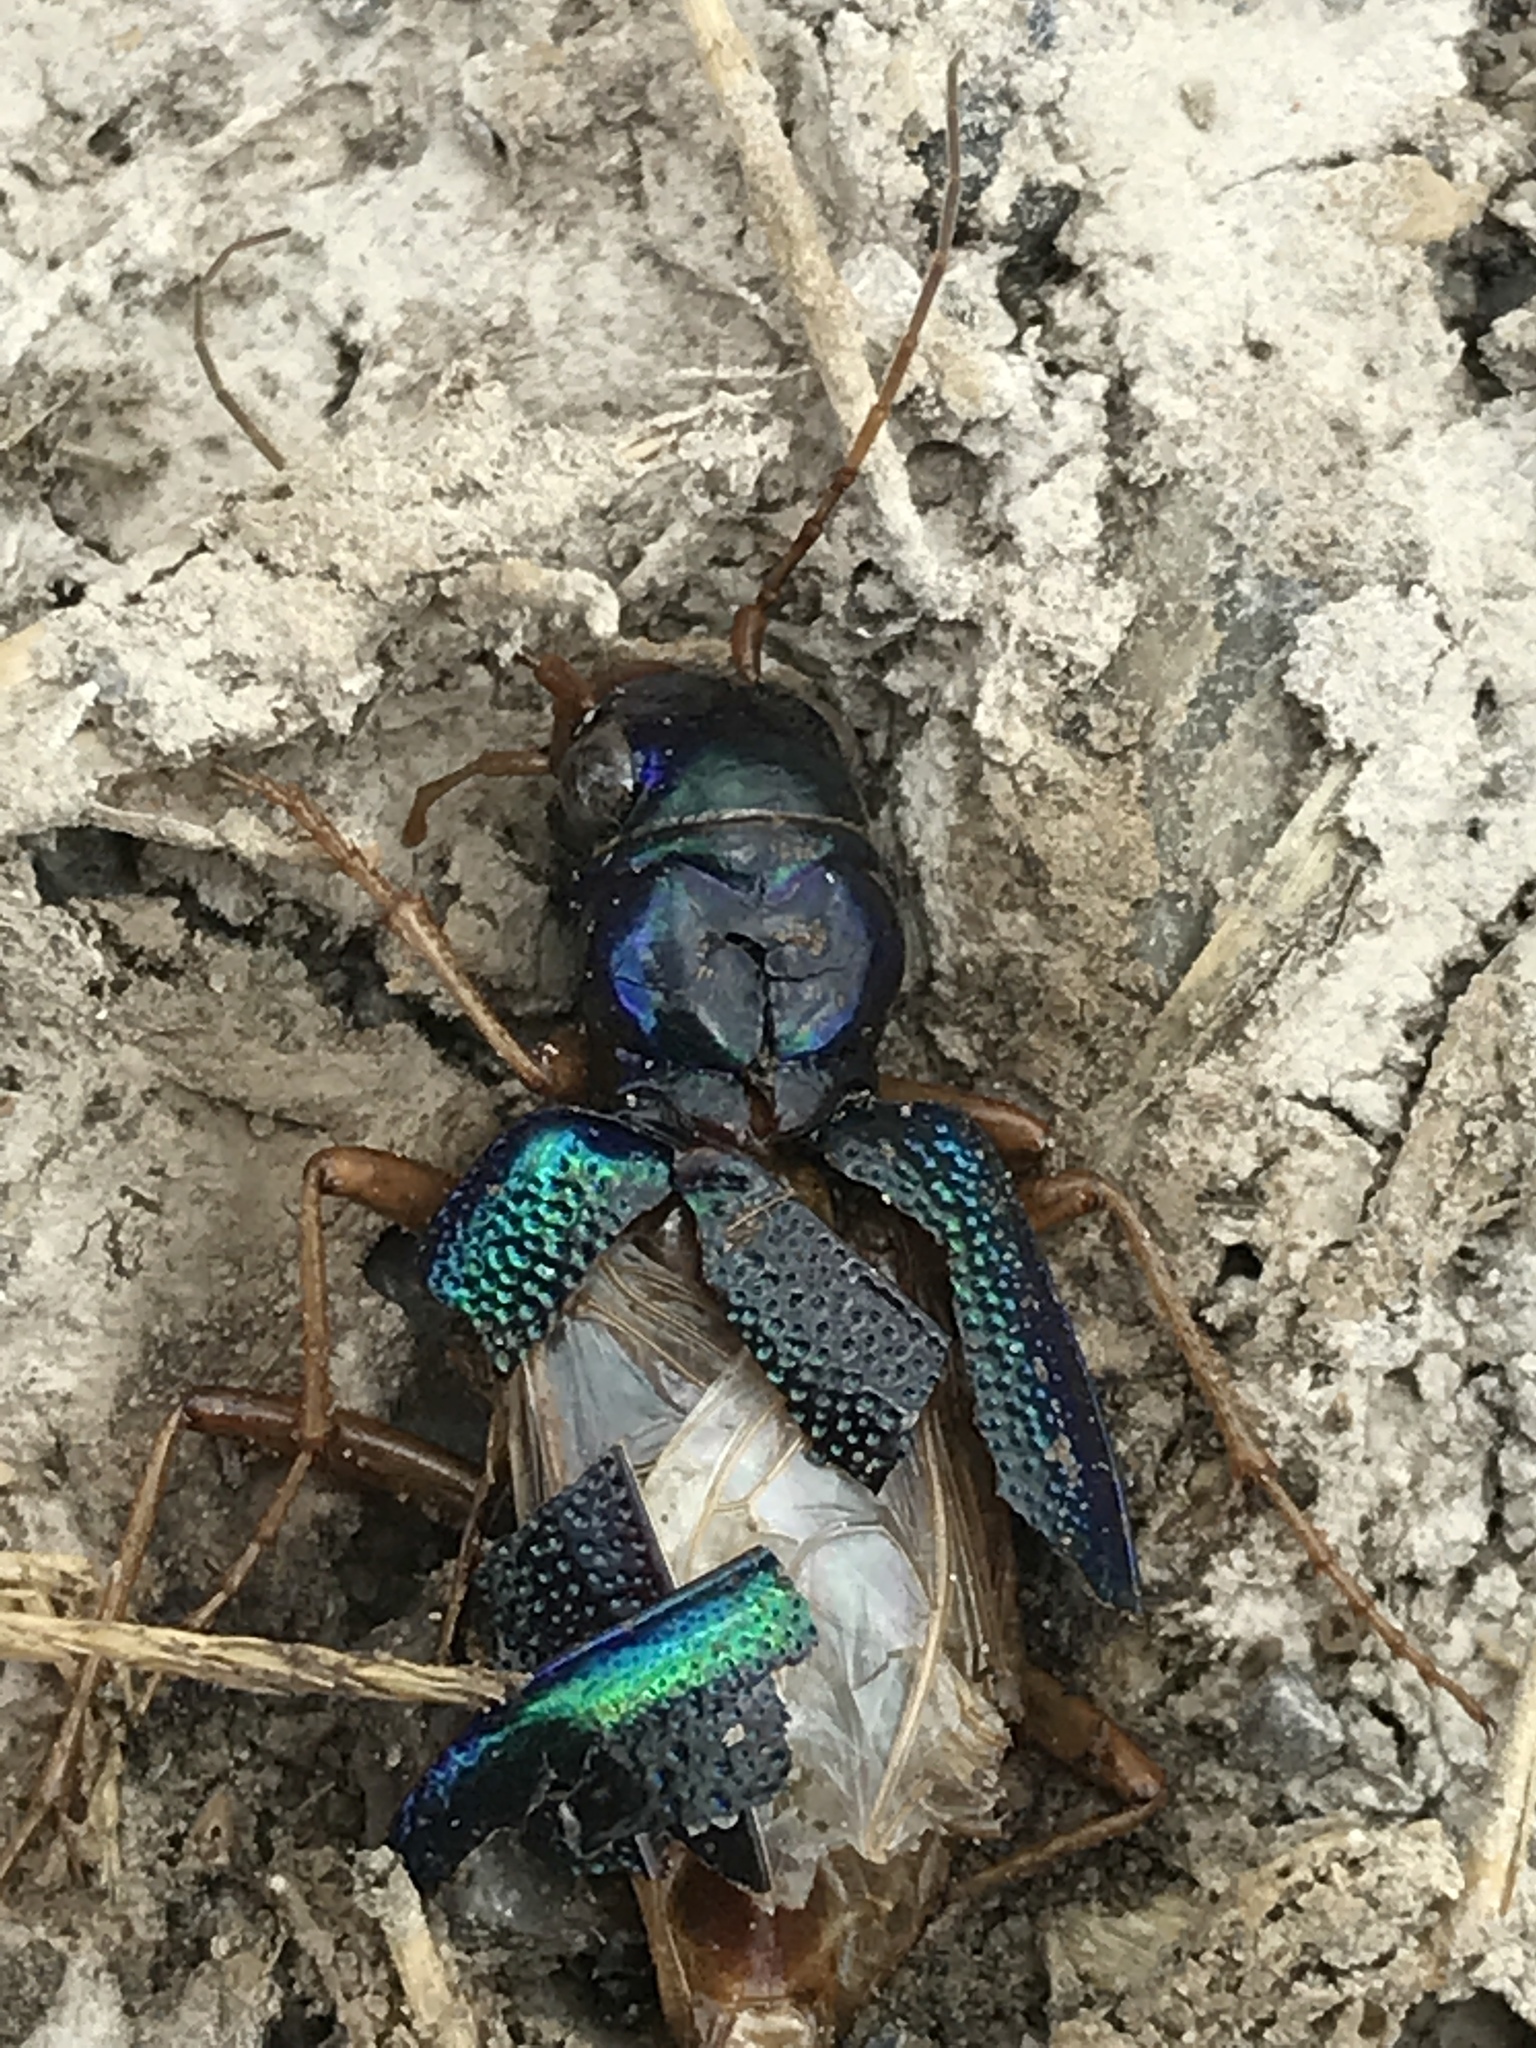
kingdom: Animalia
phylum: Arthropoda
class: Insecta
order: Coleoptera
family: Carabidae
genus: Tetracha
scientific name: Tetracha virginica
